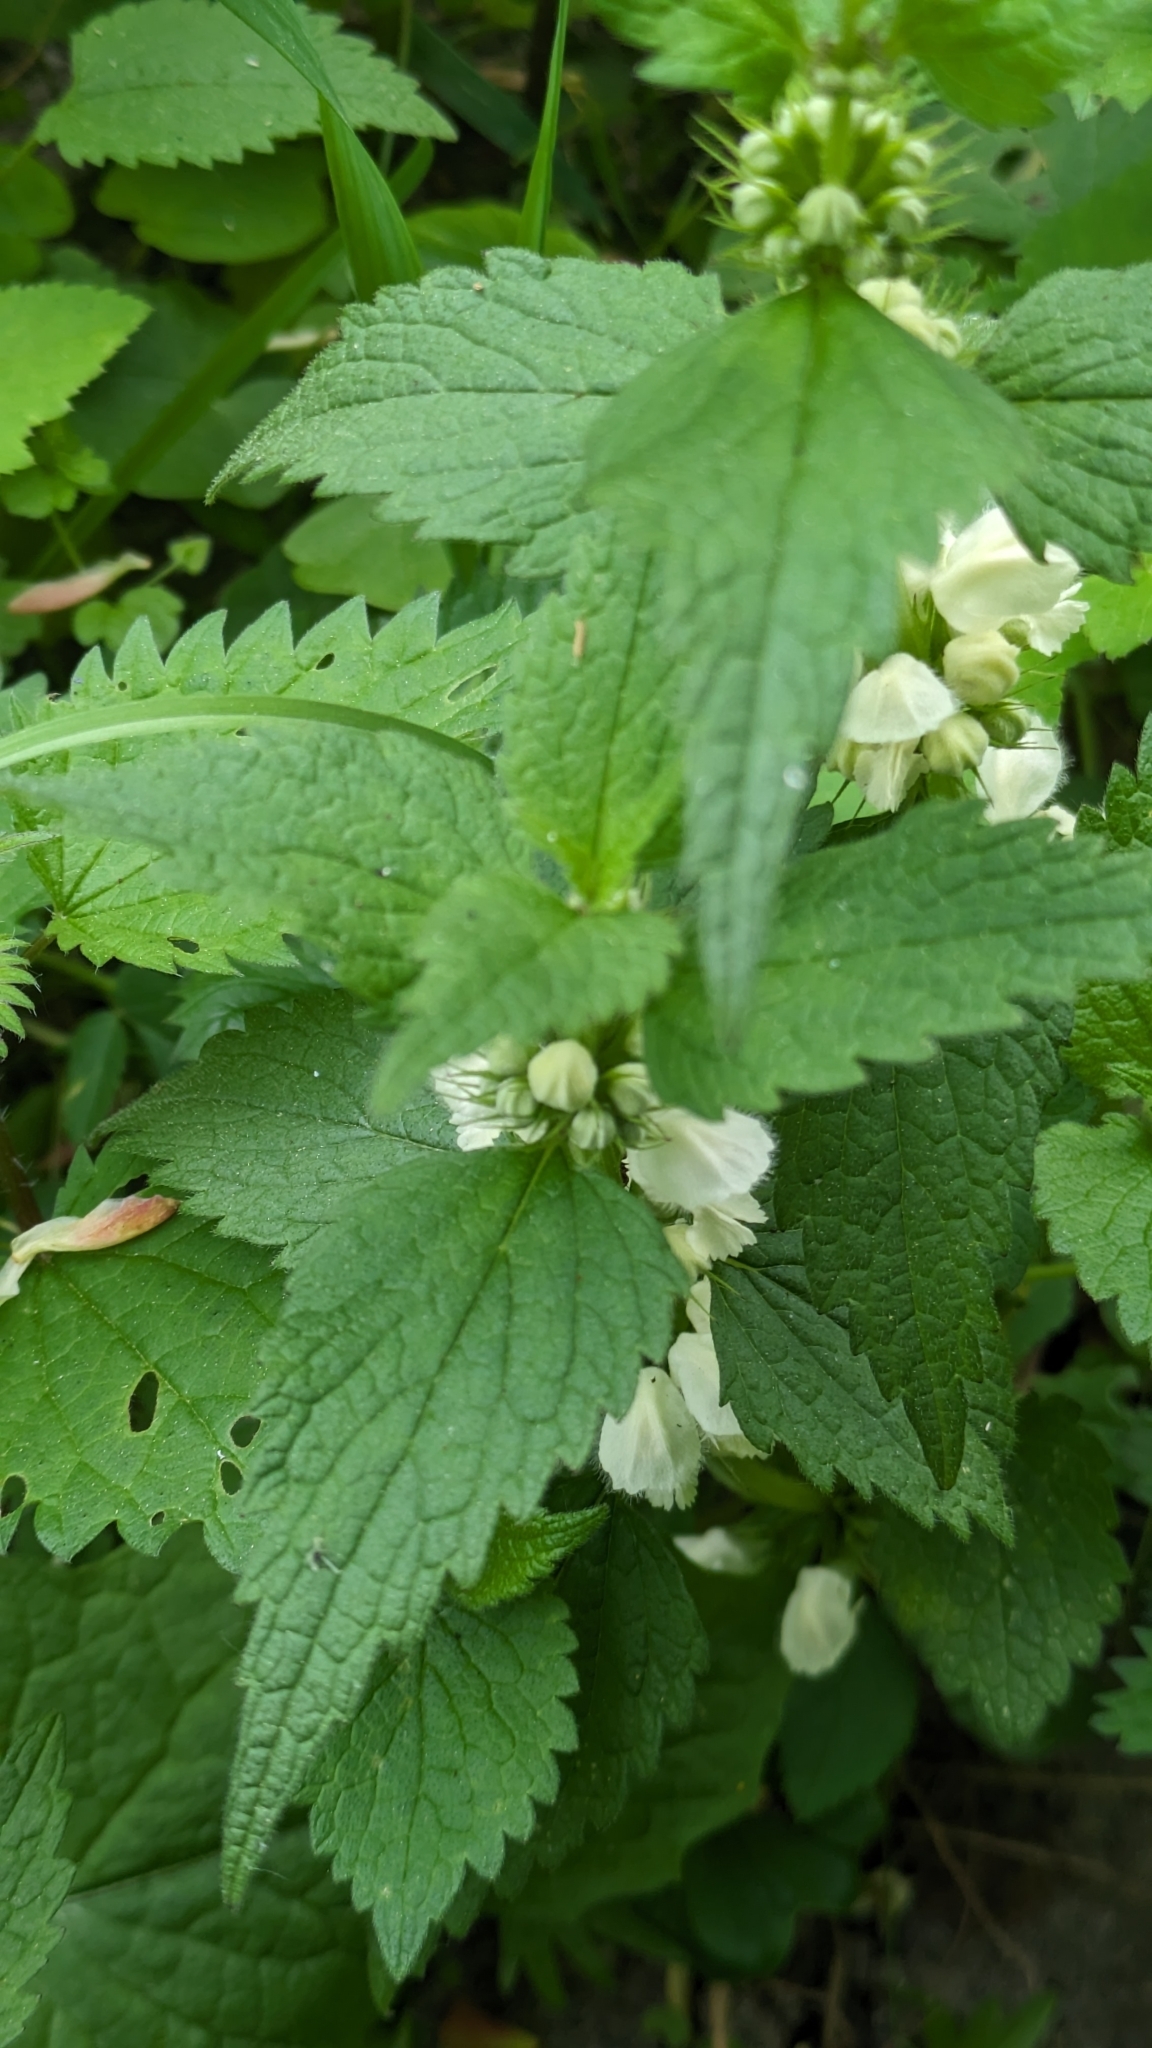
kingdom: Plantae
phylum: Tracheophyta
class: Magnoliopsida
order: Lamiales
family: Lamiaceae
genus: Lamium
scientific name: Lamium album
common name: White dead-nettle
